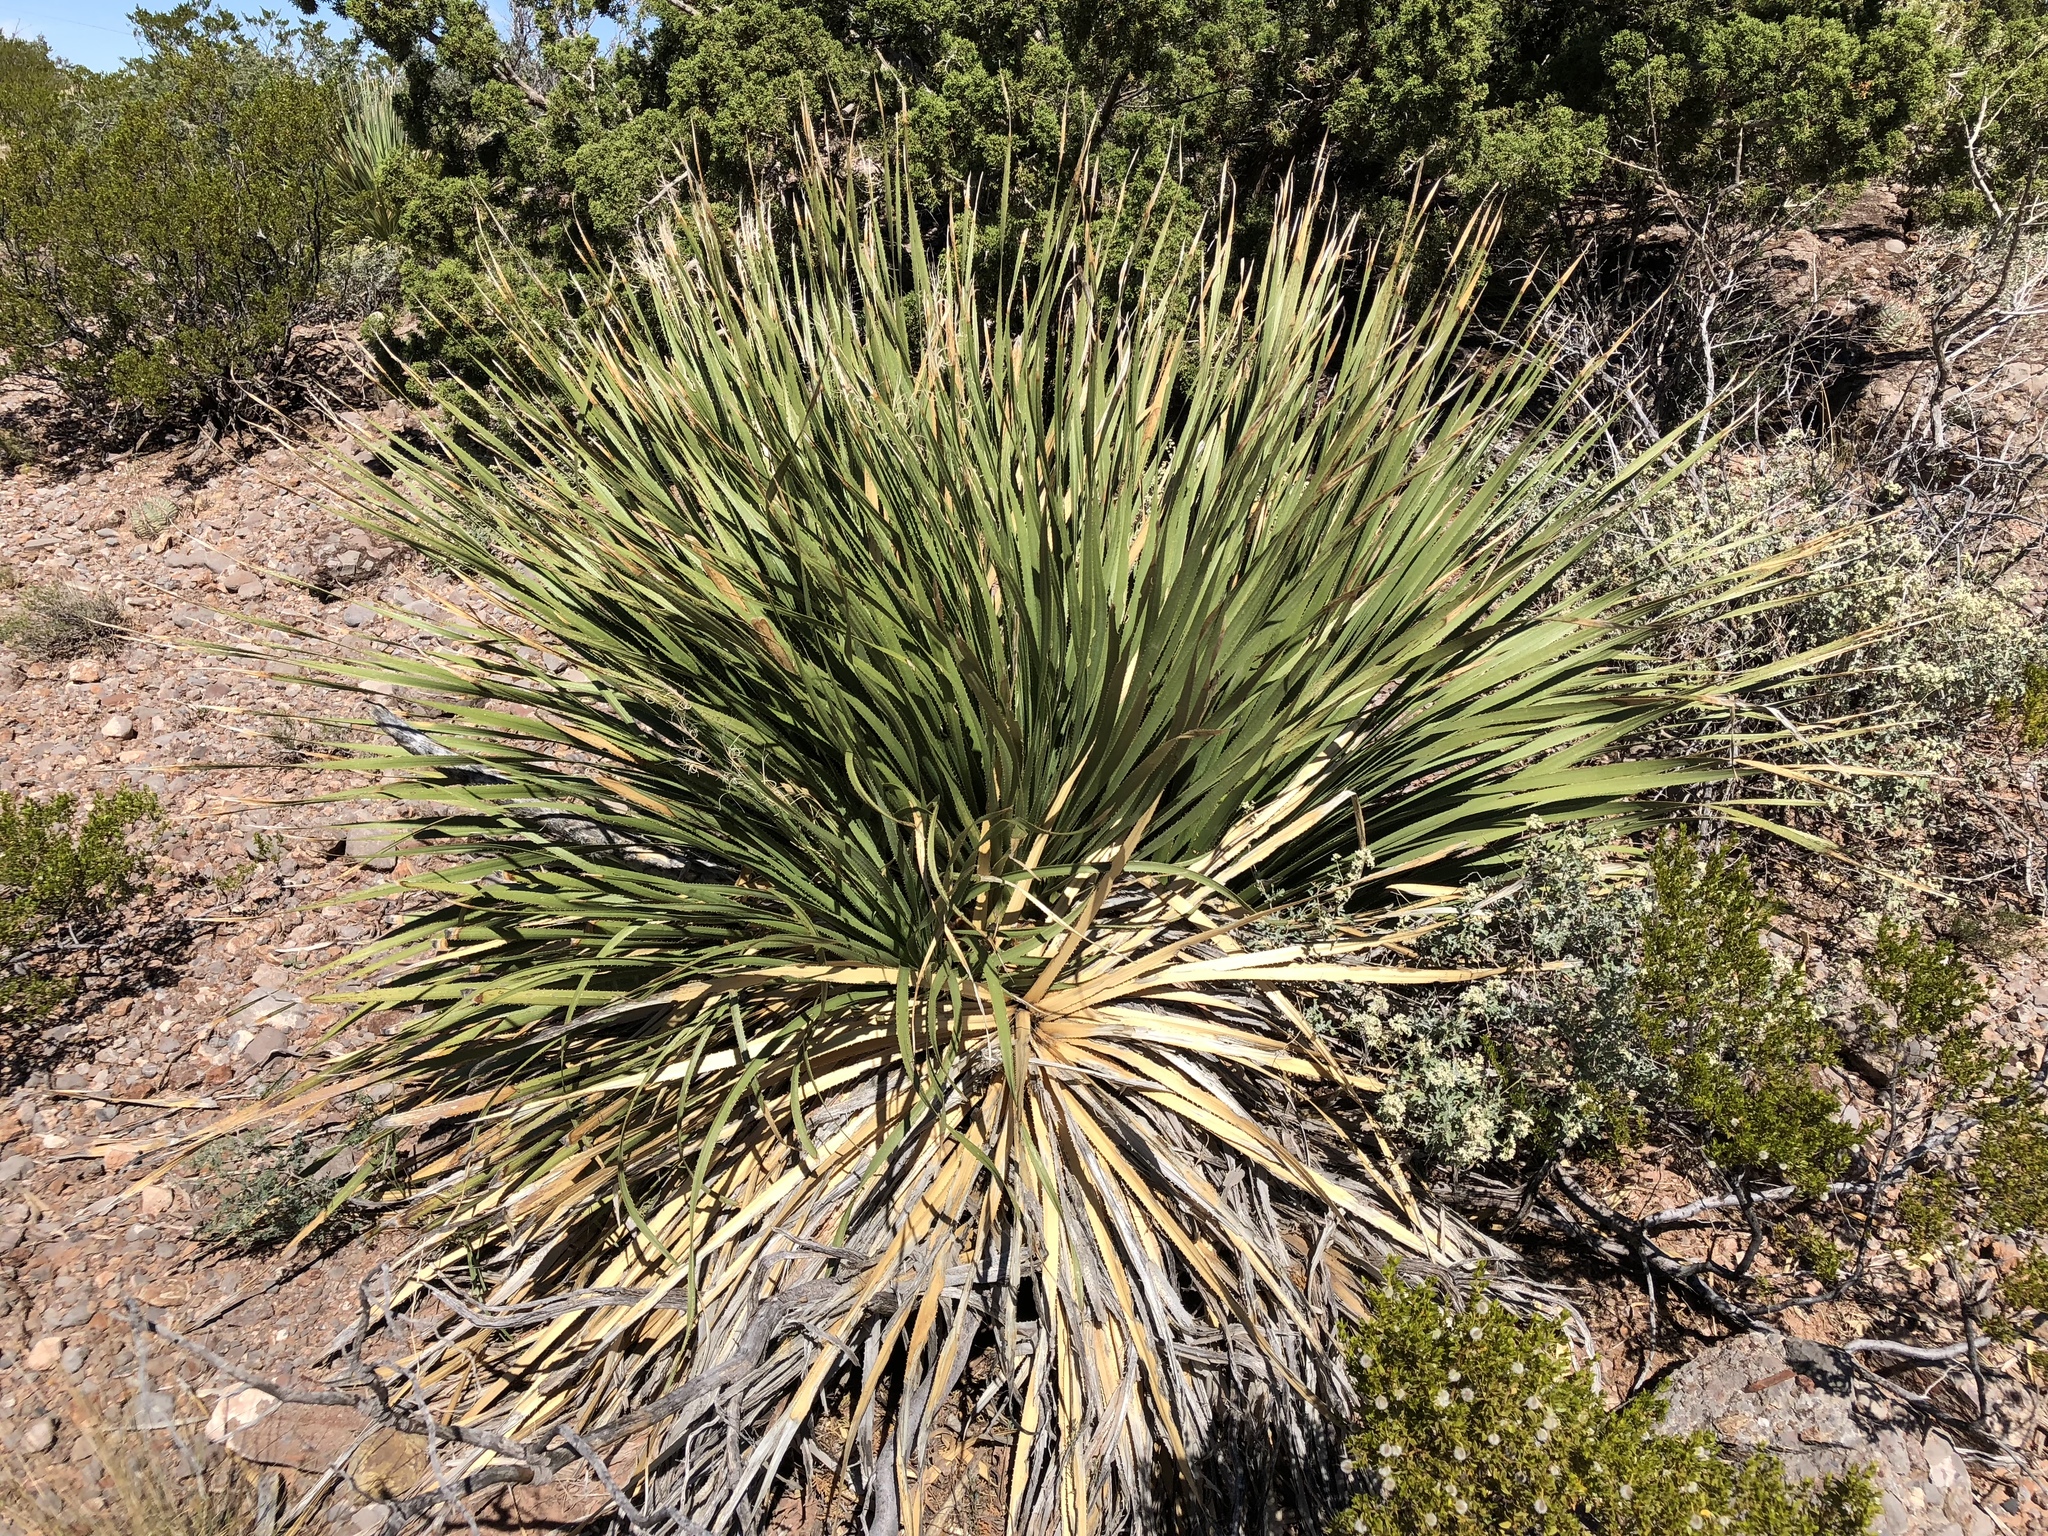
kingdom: Plantae
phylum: Tracheophyta
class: Liliopsida
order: Asparagales
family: Asparagaceae
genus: Dasylirion
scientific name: Dasylirion wheeleri
